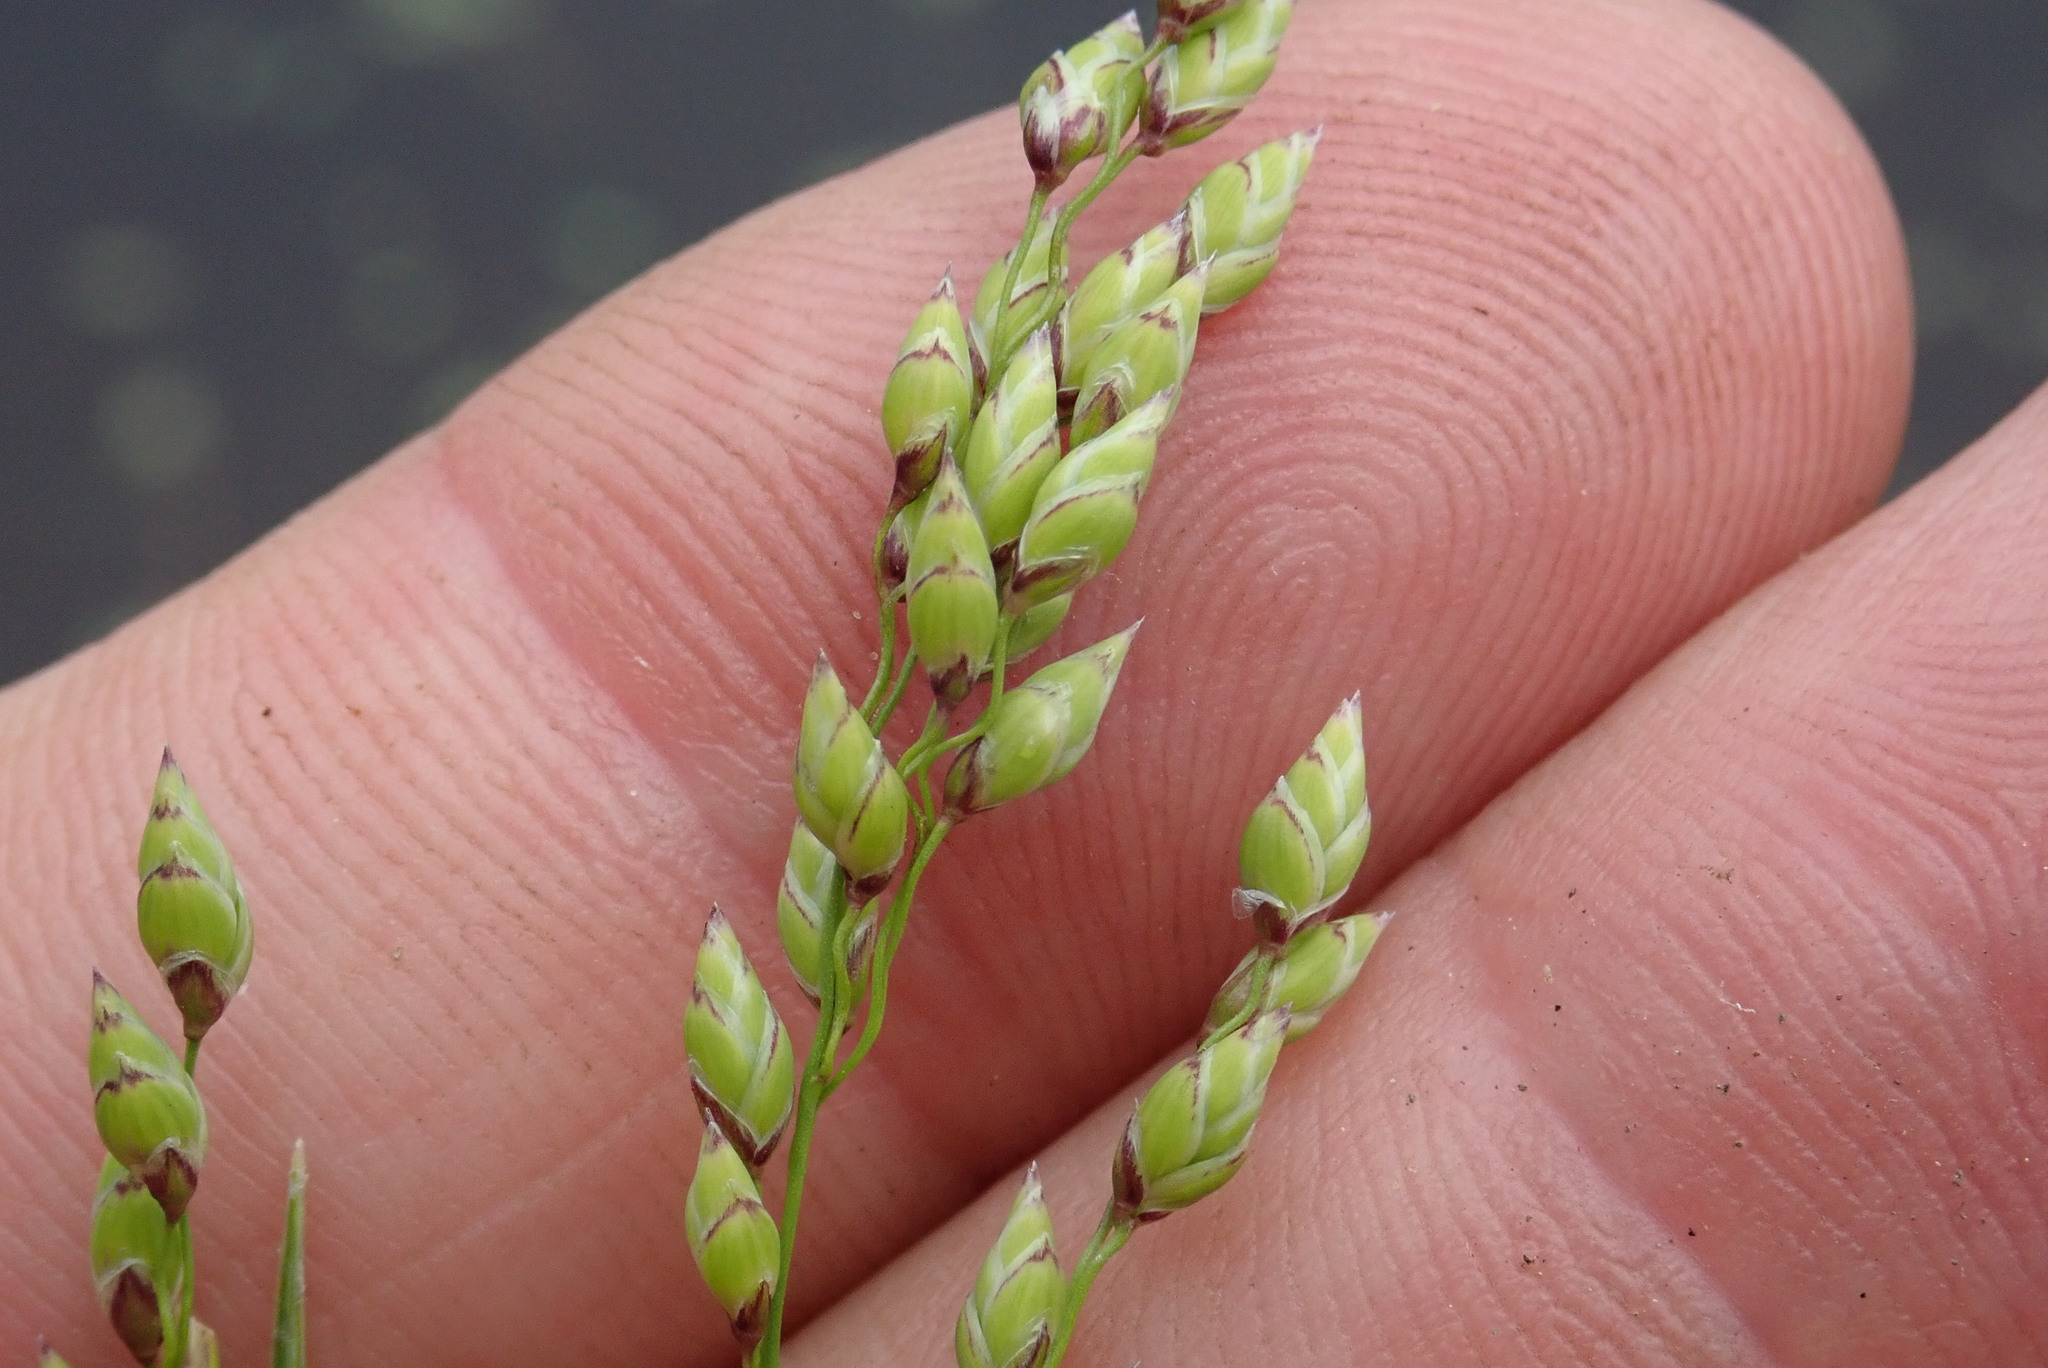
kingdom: Plantae
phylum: Tracheophyta
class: Liliopsida
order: Poales
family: Poaceae
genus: Glyceria
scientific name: Glyceria canadensis
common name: Canada mannagrass
